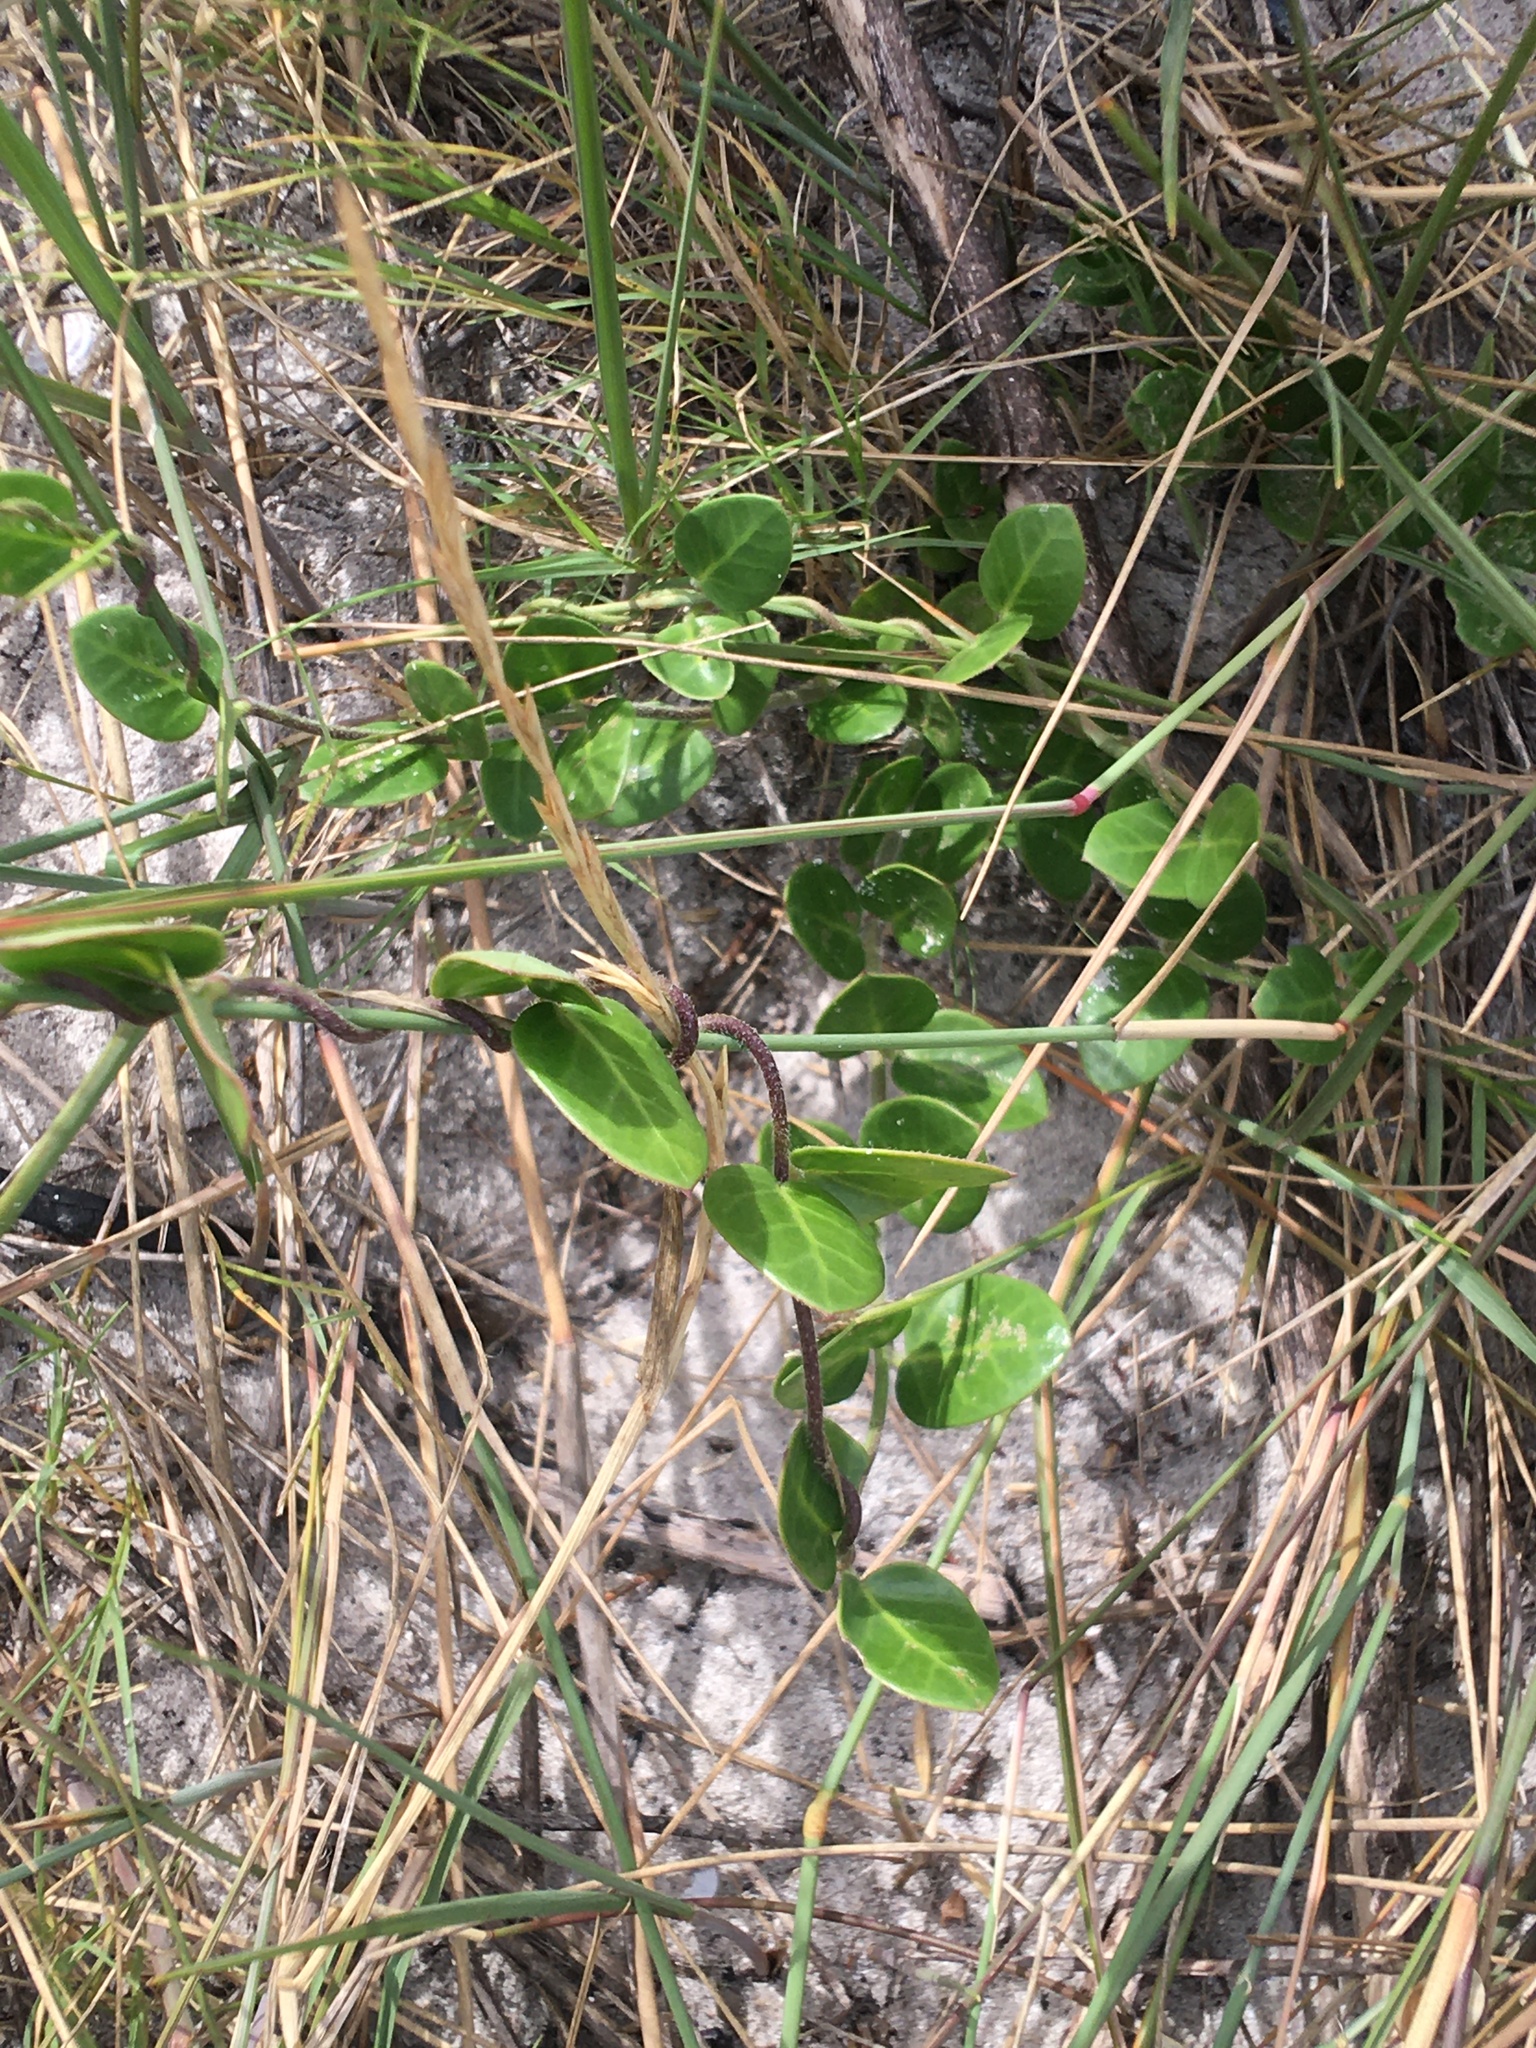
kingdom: Plantae
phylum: Tracheophyta
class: Magnoliopsida
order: Gentianales
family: Apocynaceae
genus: Cynanchum
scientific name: Cynanchum africanum
